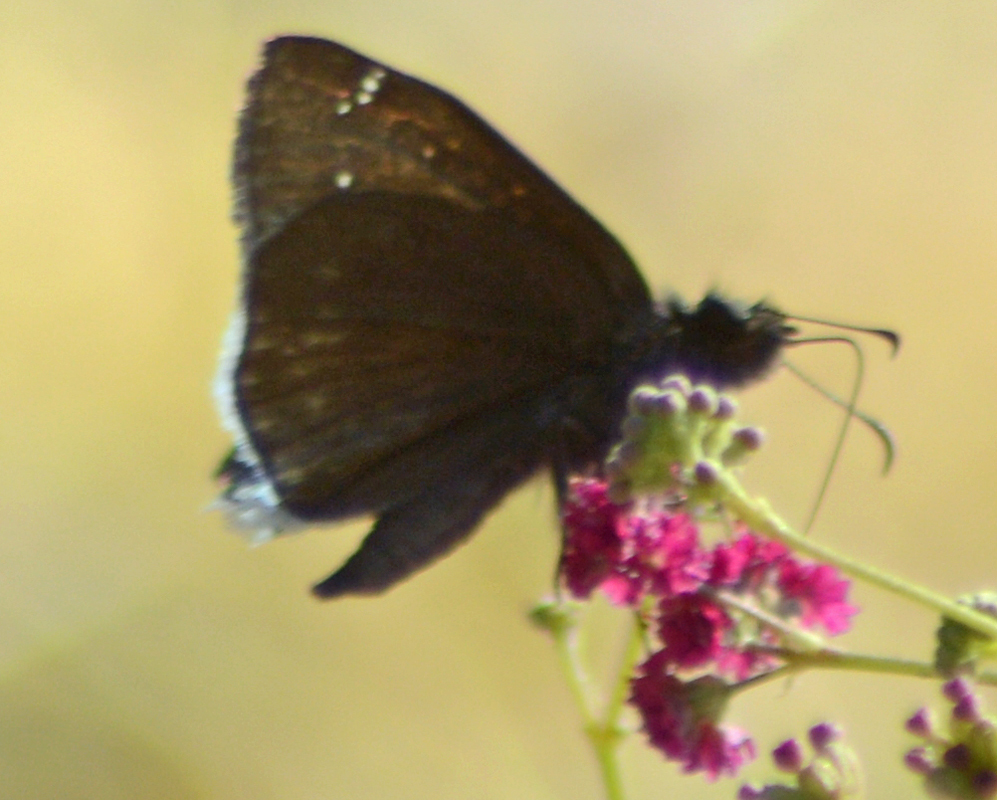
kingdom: Animalia
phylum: Arthropoda
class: Insecta
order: Lepidoptera
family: Hesperiidae
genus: Erynnis
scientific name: Erynnis funeralis
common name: Funereal duskywing
